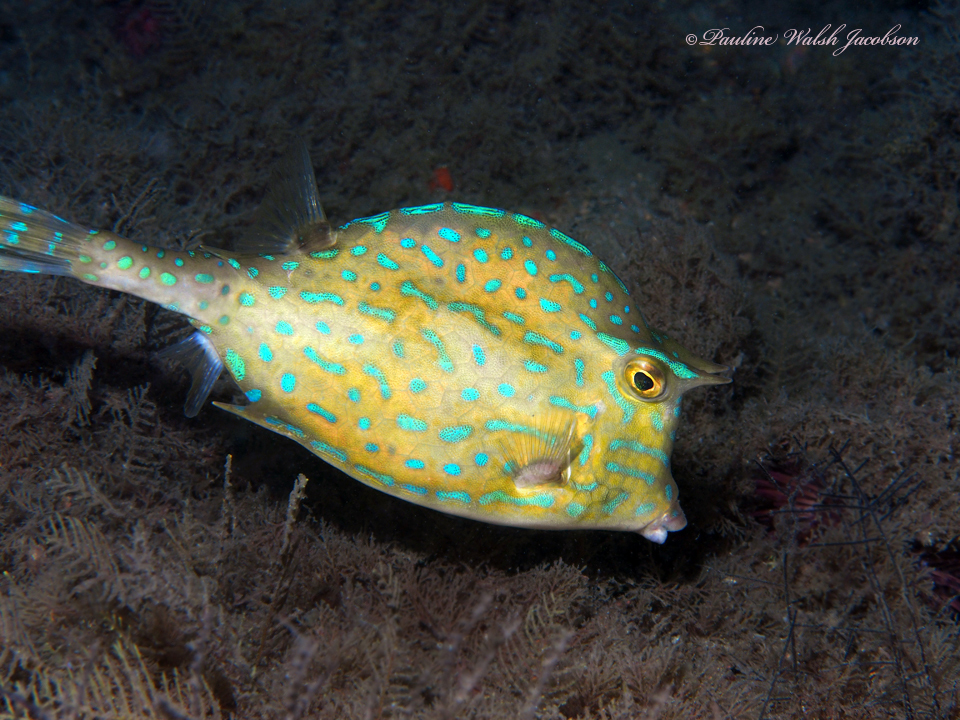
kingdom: Animalia
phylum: Chordata
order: Tetraodontiformes
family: Ostraciidae
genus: Acanthostracion
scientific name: Acanthostracion quadricornis
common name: Scrawled cowfish
